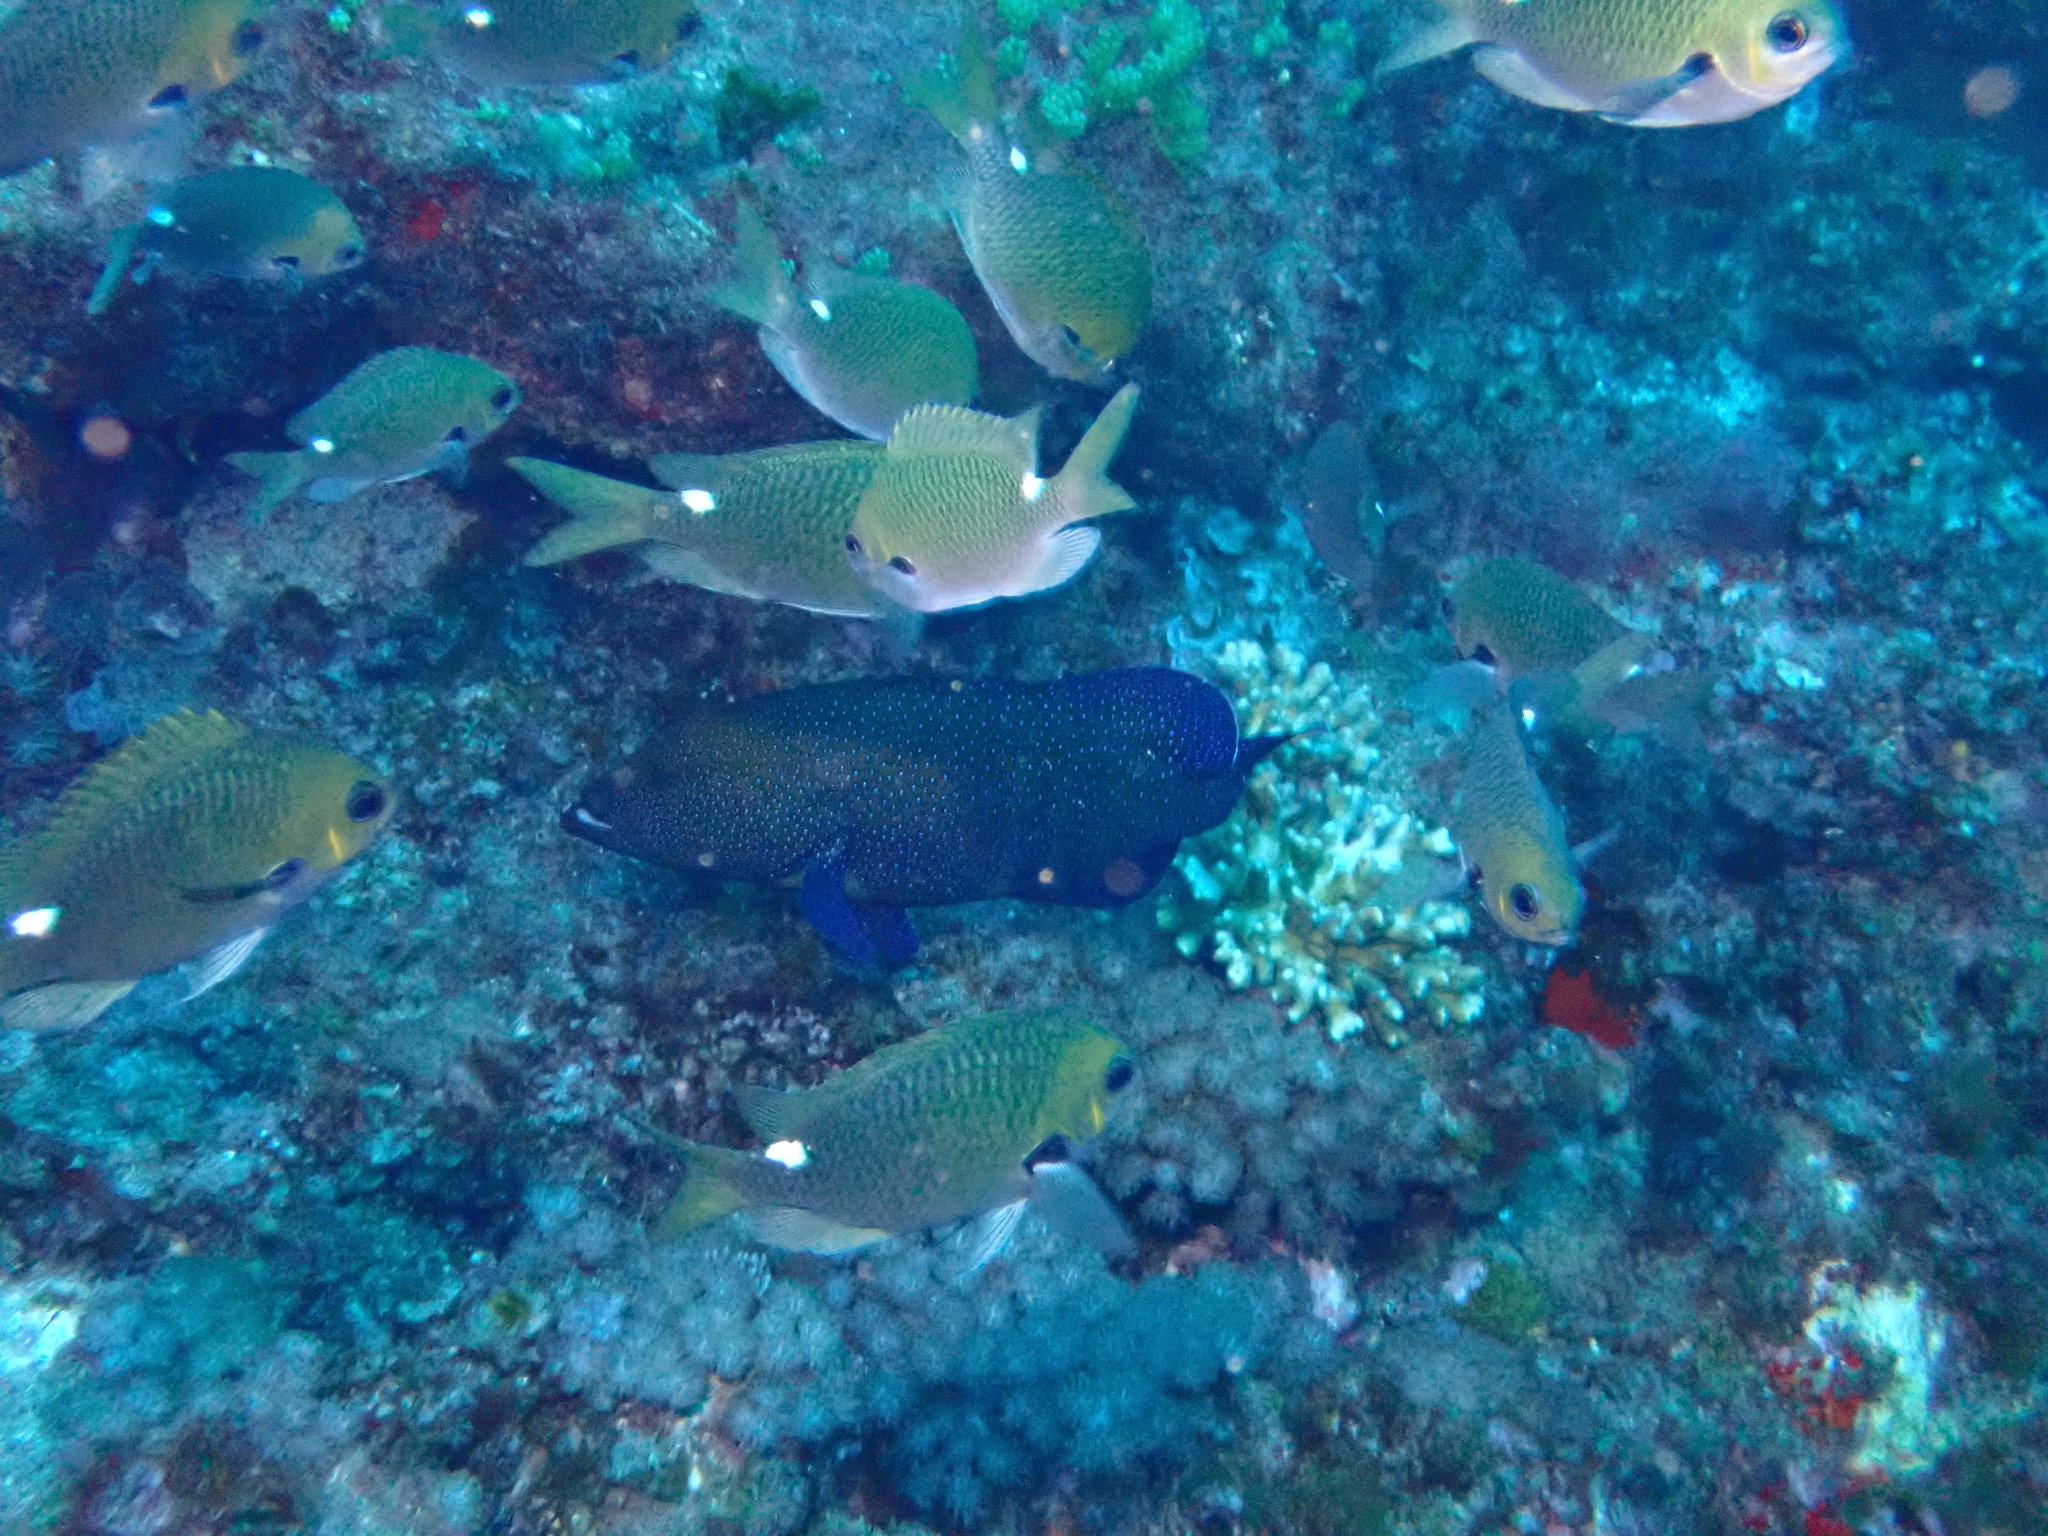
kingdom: Animalia
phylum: Chordata
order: Perciformes
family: Pomacentridae
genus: Chromis
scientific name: Chromis hypsilepis
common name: Brown puller
